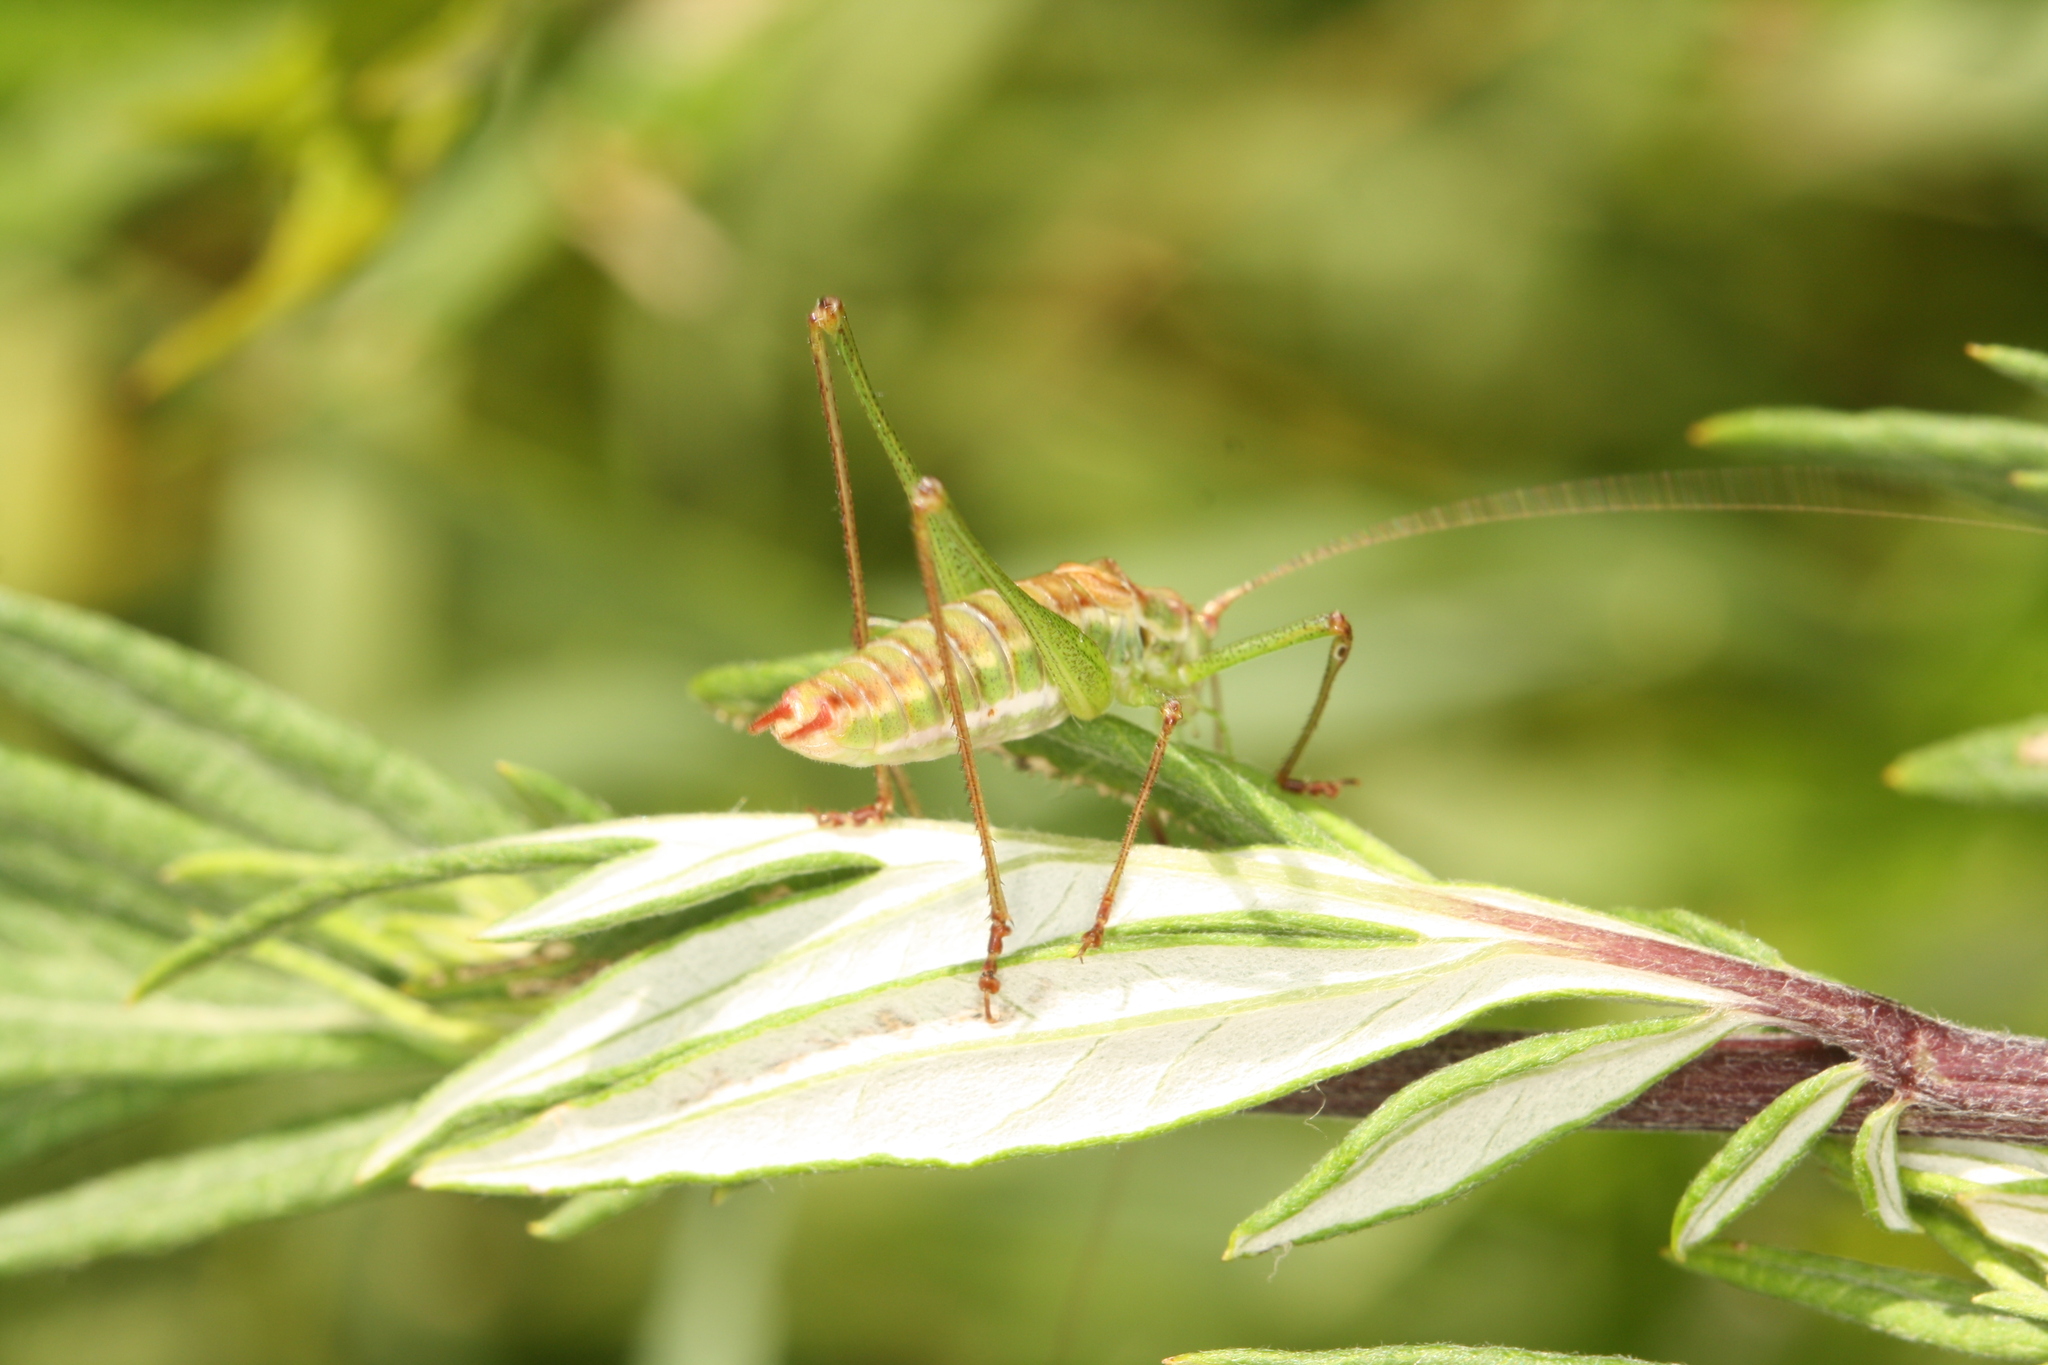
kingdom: Animalia
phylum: Arthropoda
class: Insecta
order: Orthoptera
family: Tettigoniidae
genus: Leptophyes
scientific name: Leptophyes albovittata
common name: Striped bush-cricket
